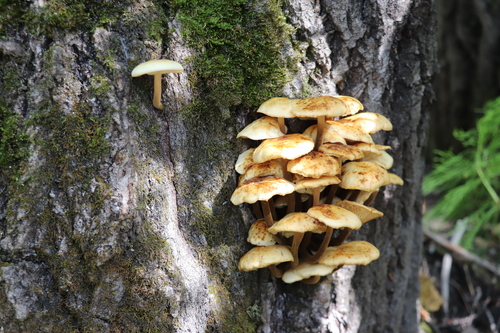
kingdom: Fungi
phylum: Basidiomycota
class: Agaricomycetes
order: Agaricales
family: Physalacriaceae
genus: Flammulina
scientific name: Flammulina velutipes
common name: Velvet shank
